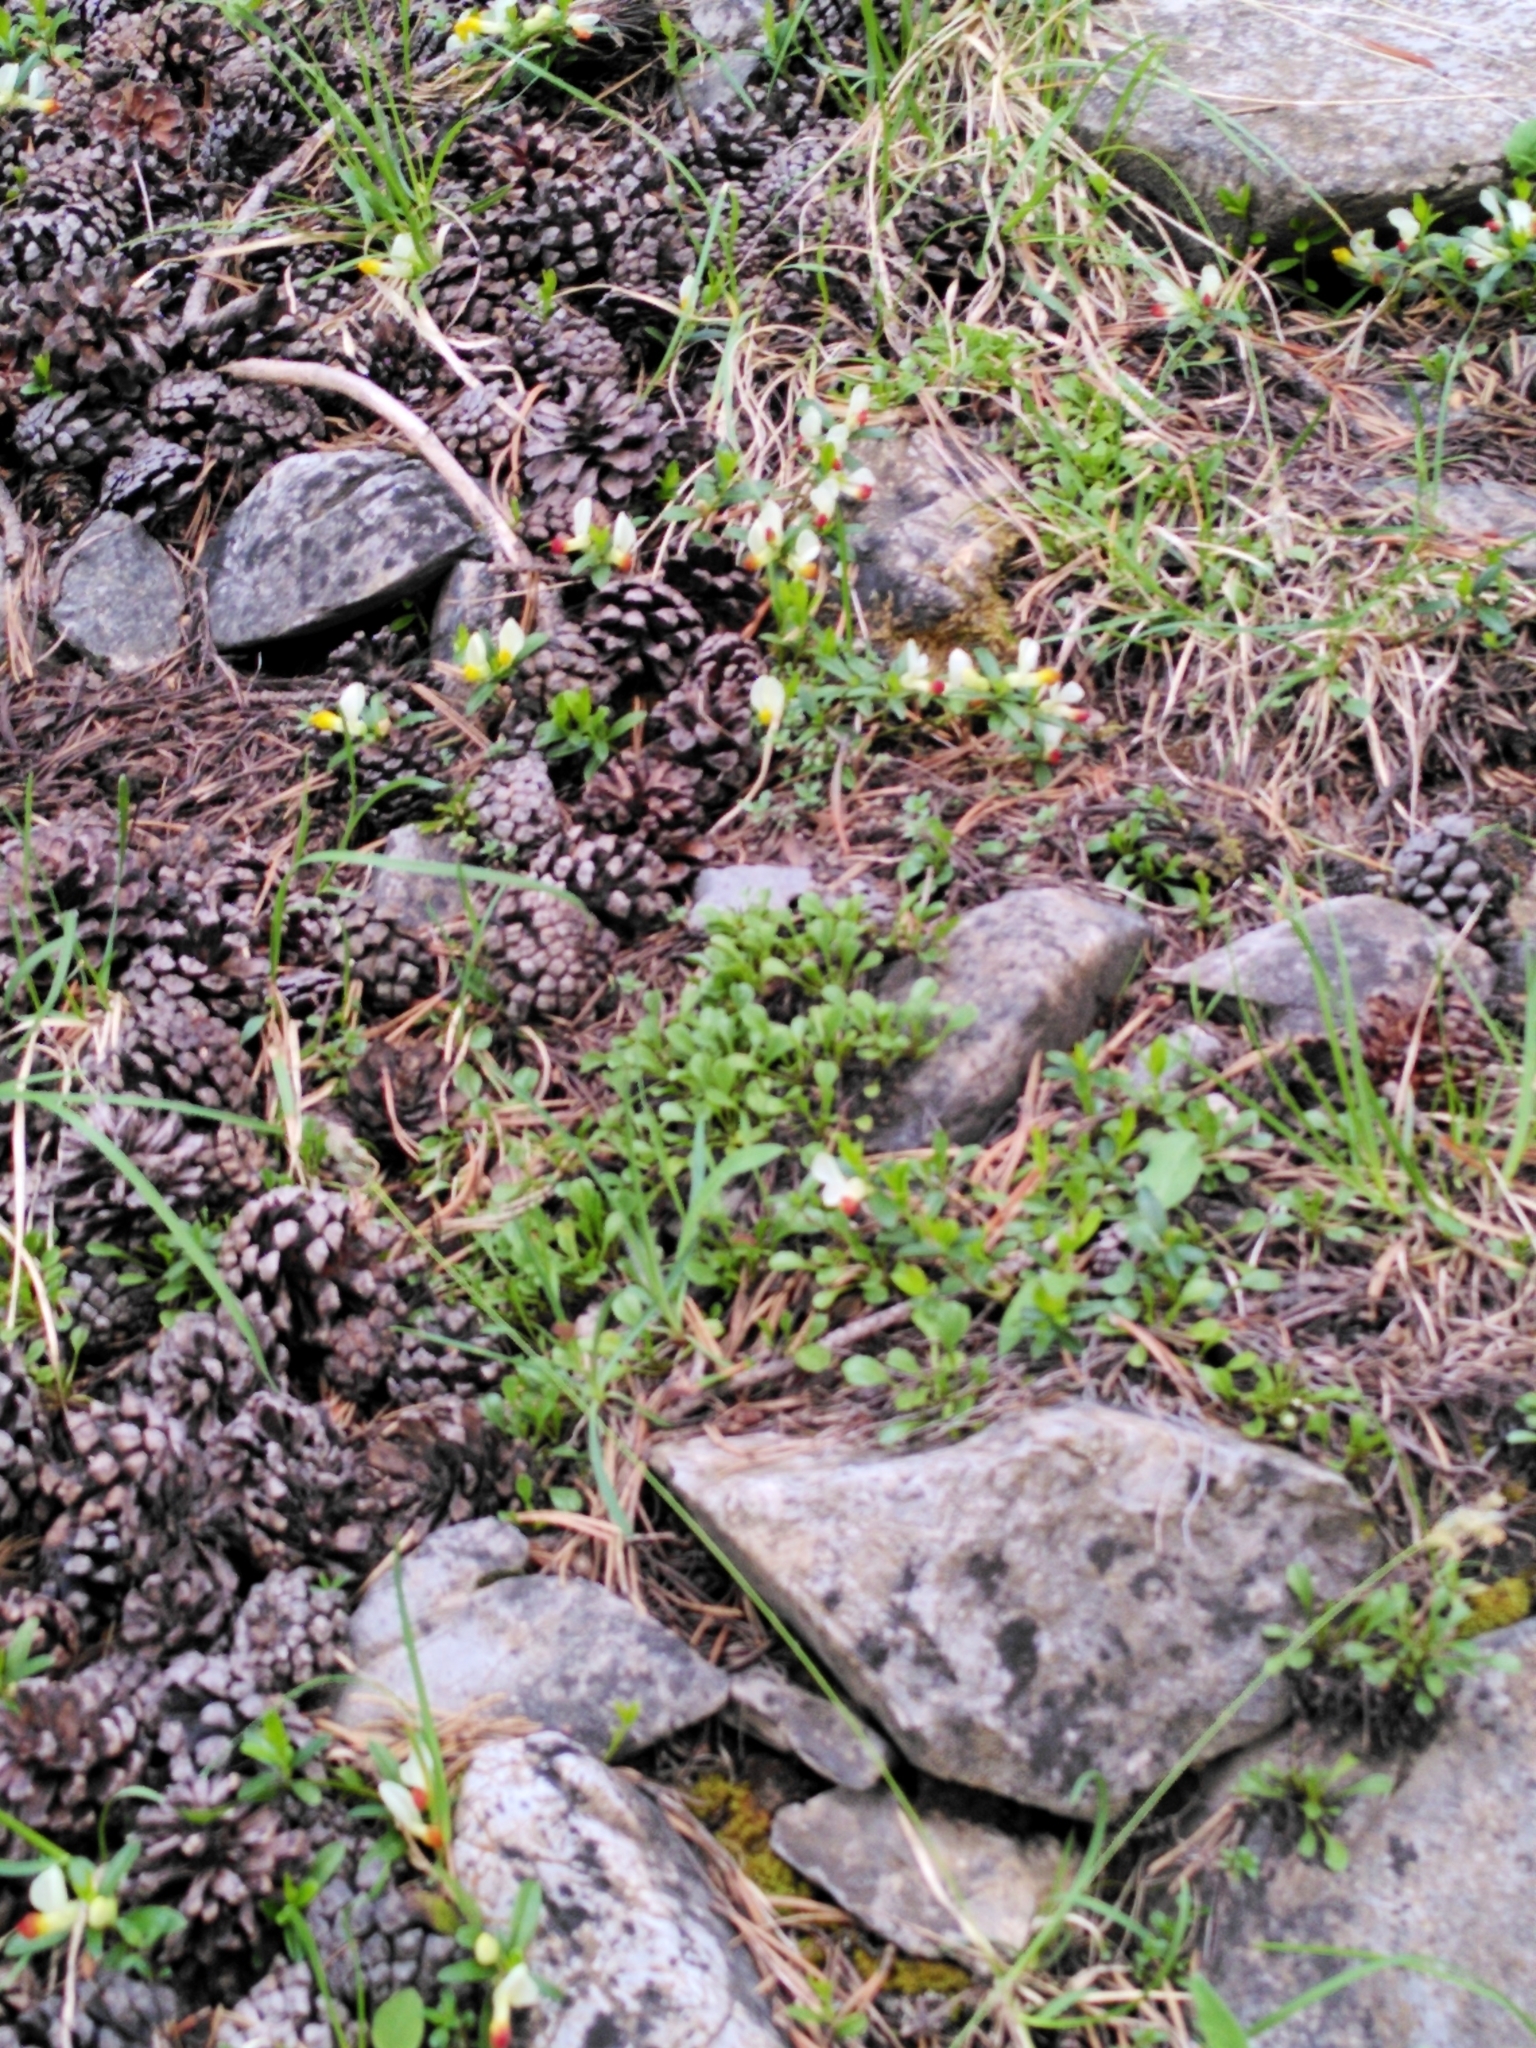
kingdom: Plantae
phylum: Tracheophyta
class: Magnoliopsida
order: Fabales
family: Polygalaceae
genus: Polygaloides
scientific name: Polygaloides chamaebuxus
